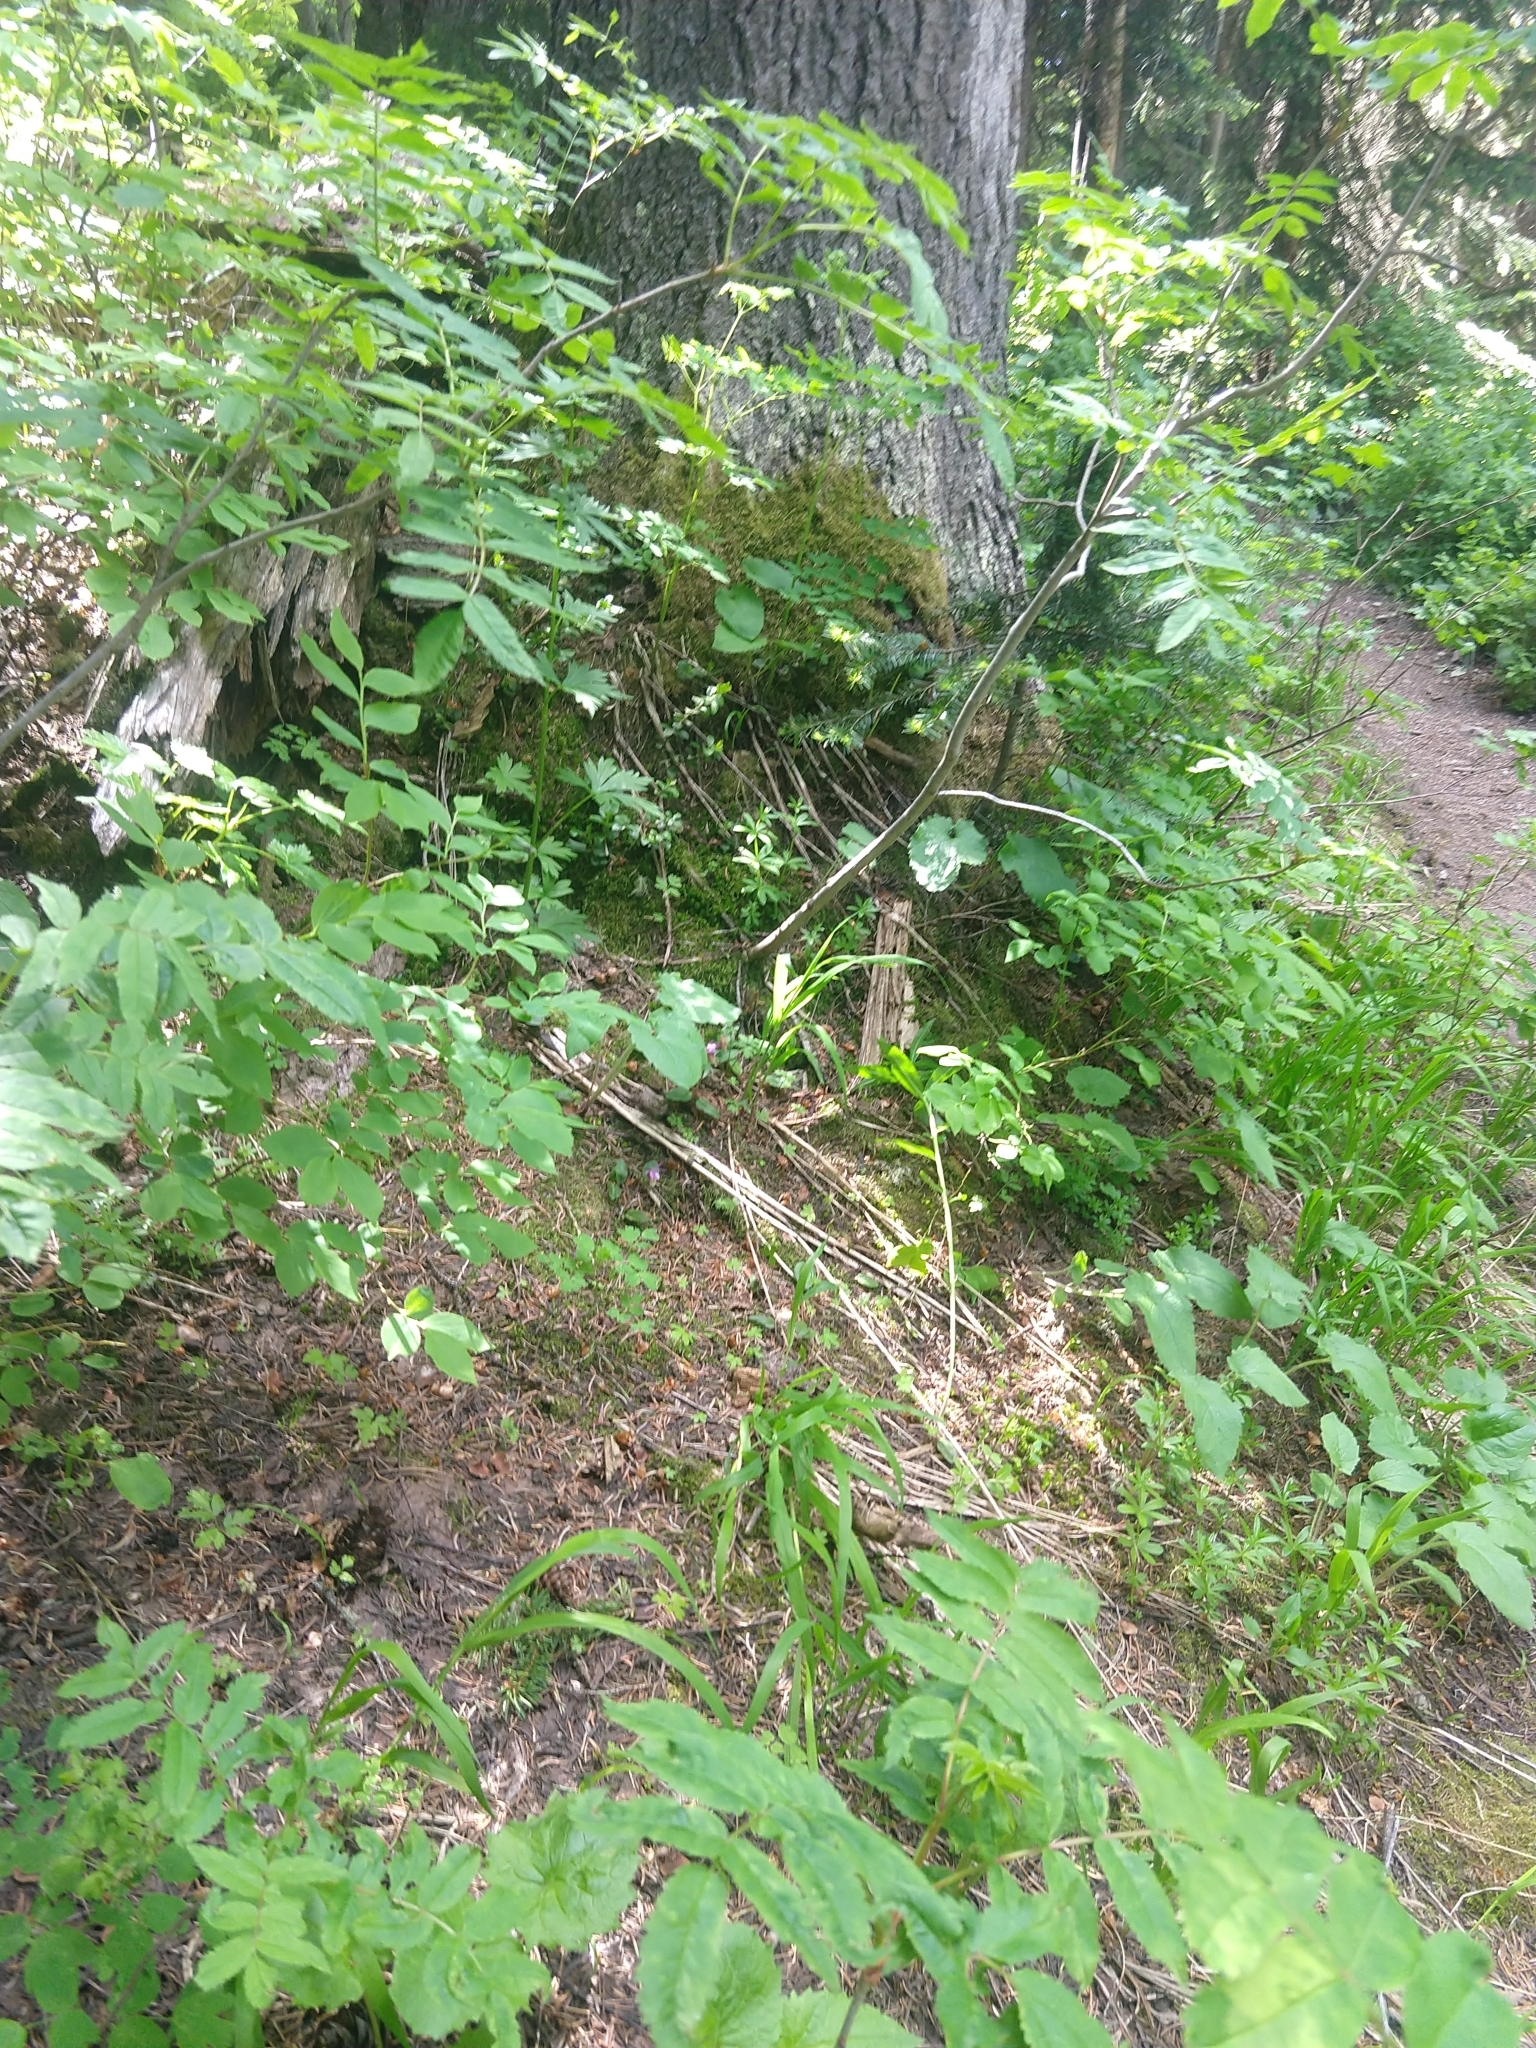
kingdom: Plantae
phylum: Tracheophyta
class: Liliopsida
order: Asparagales
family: Orchidaceae
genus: Calypso
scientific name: Calypso bulbosa
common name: Calypso
